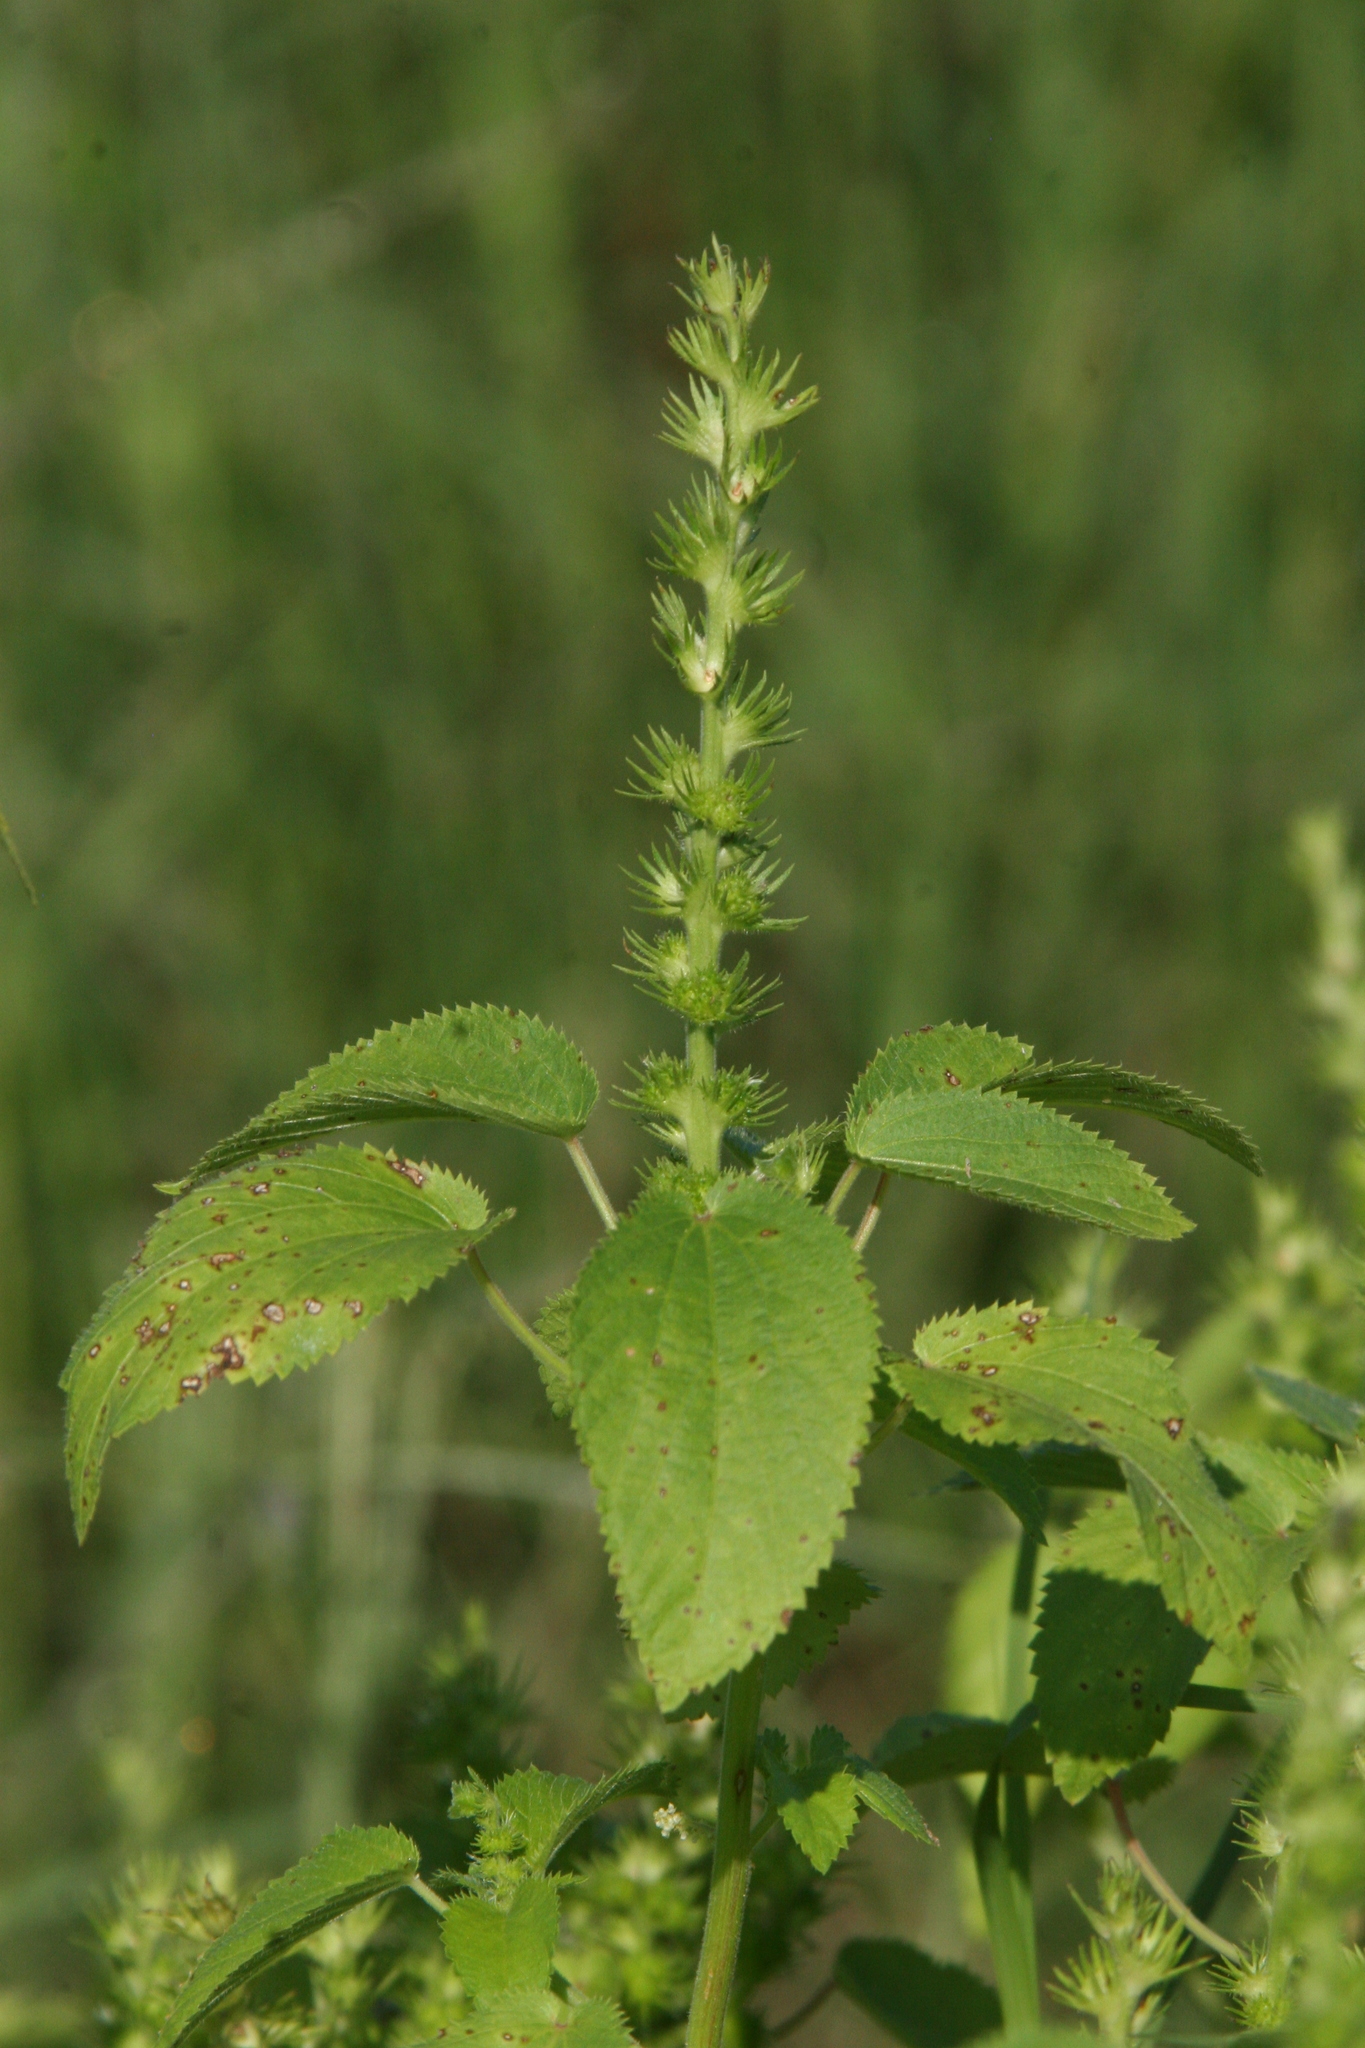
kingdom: Plantae
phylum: Tracheophyta
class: Magnoliopsida
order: Malpighiales
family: Euphorbiaceae
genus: Acalypha
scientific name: Acalypha ostryifolia
